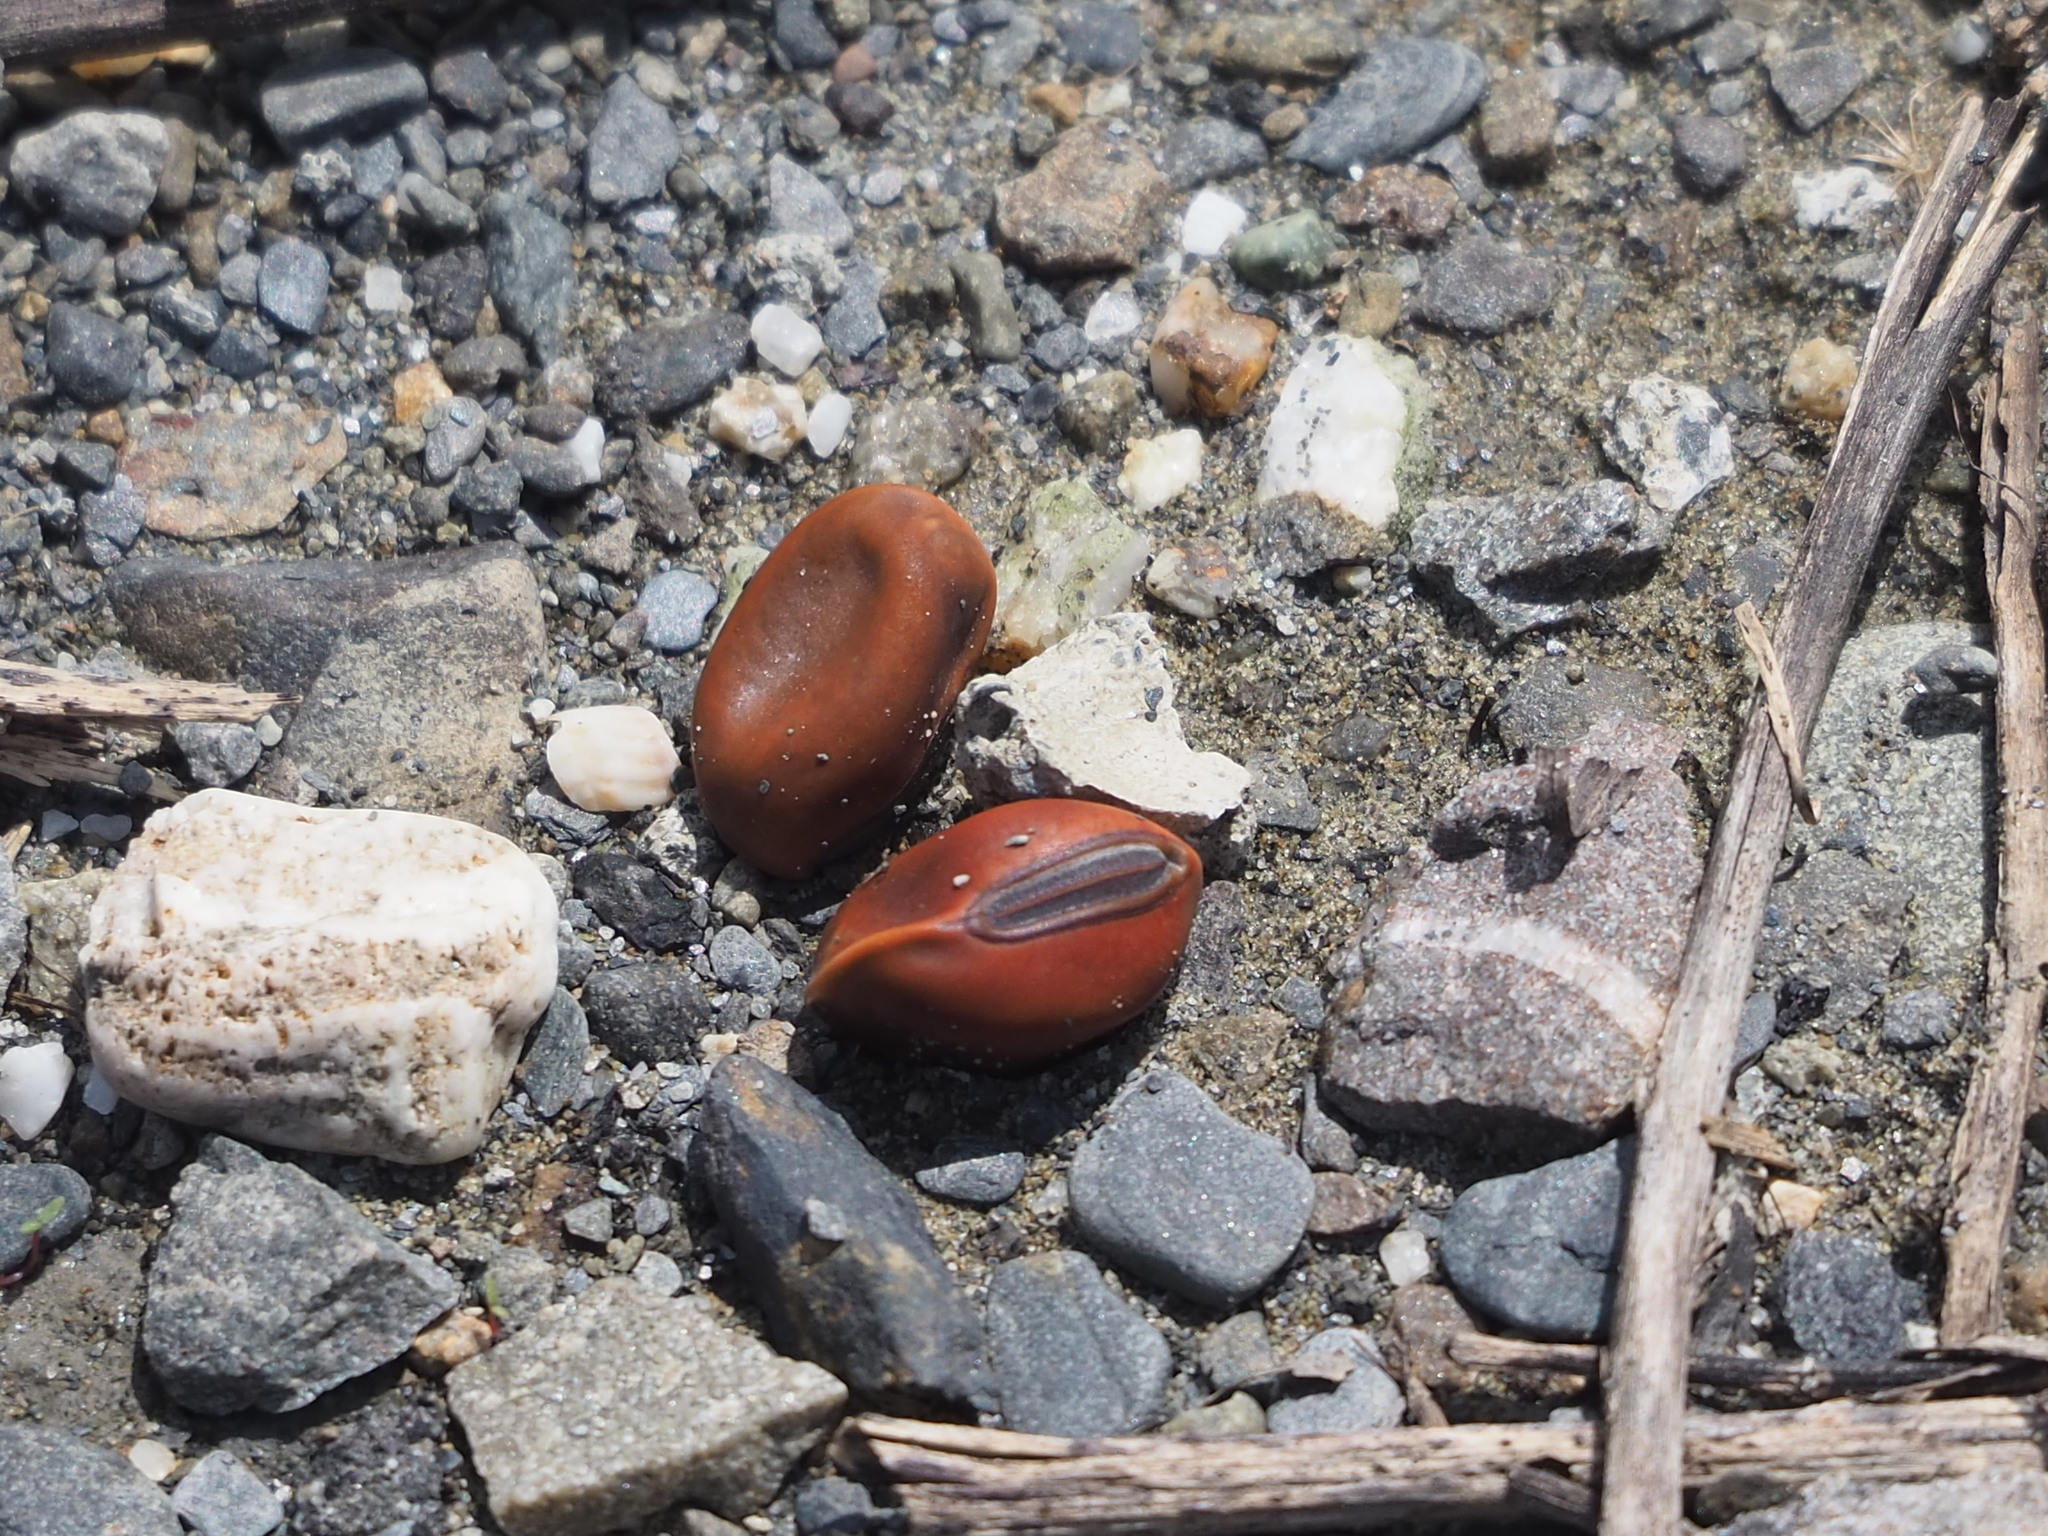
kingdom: Plantae
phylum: Tracheophyta
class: Magnoliopsida
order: Fabales
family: Fabaceae
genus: Canavalia
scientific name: Canavalia rosea
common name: Beach-bean
